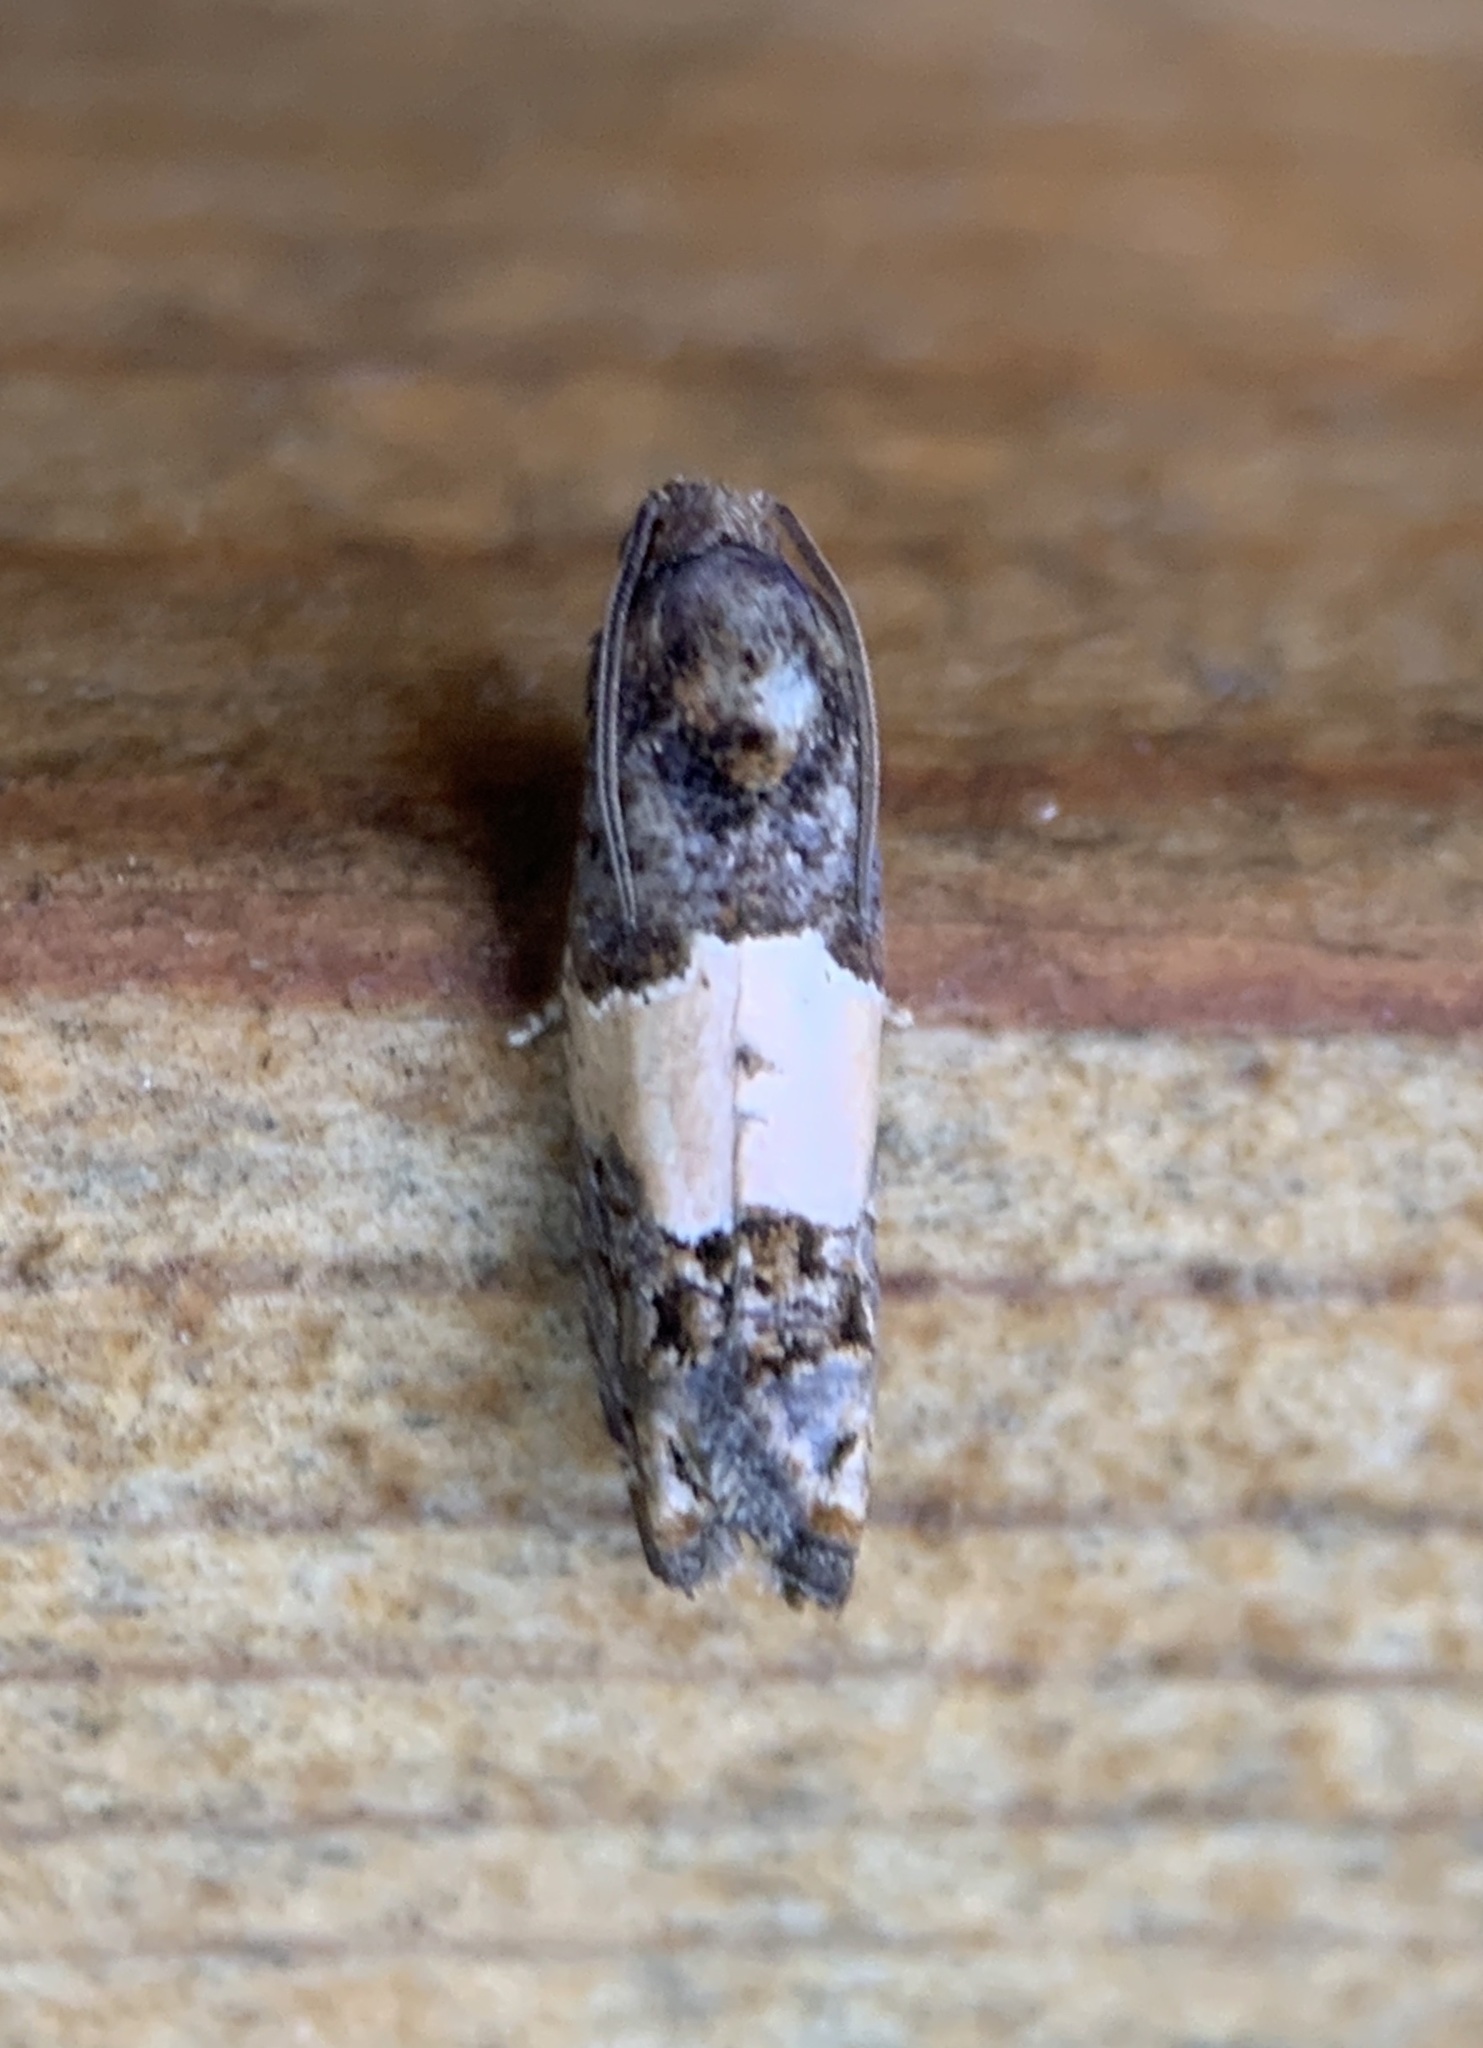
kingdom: Animalia
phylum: Arthropoda
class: Insecta
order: Lepidoptera
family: Tortricidae
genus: Epiblema
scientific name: Epiblema glenni
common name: Glenn's epiblema
